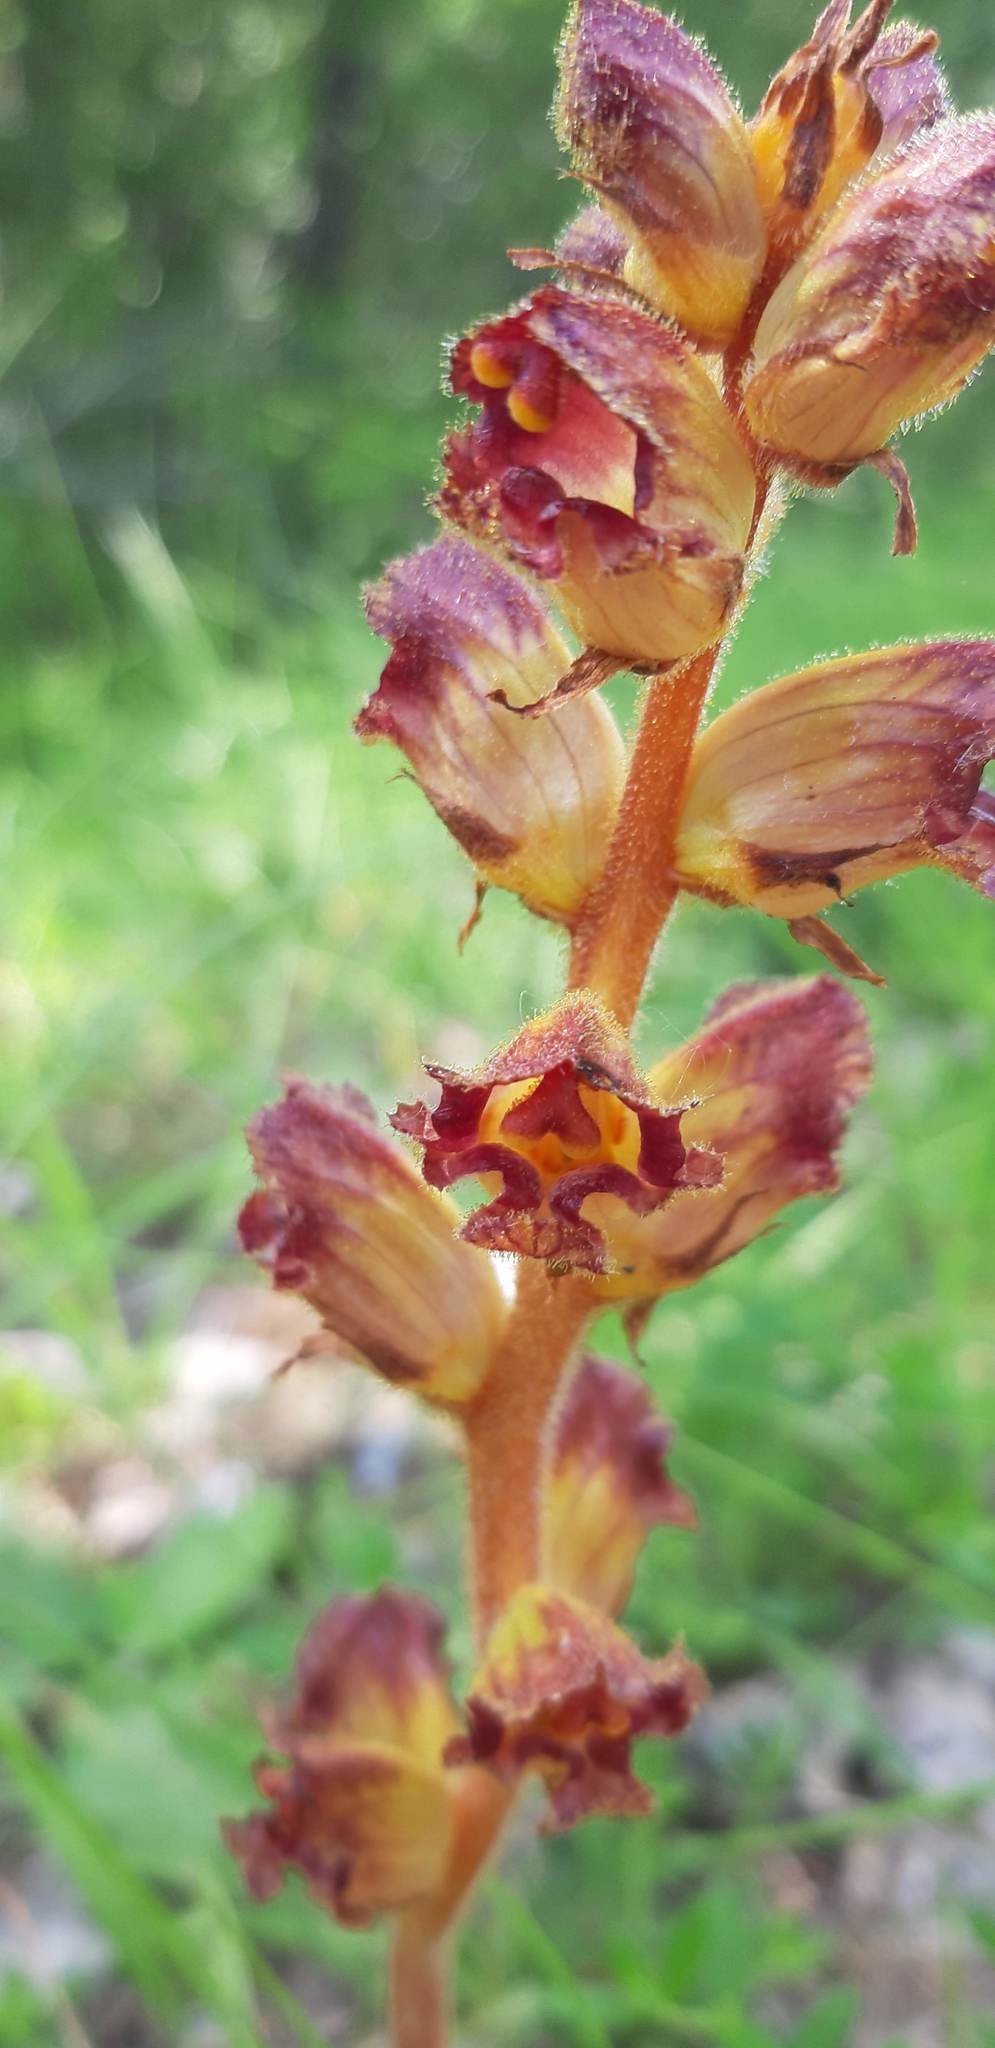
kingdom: Plantae
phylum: Tracheophyta
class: Magnoliopsida
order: Lamiales
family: Orobanchaceae
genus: Orobanche
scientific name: Orobanche gracilis
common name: Slender broomrape
